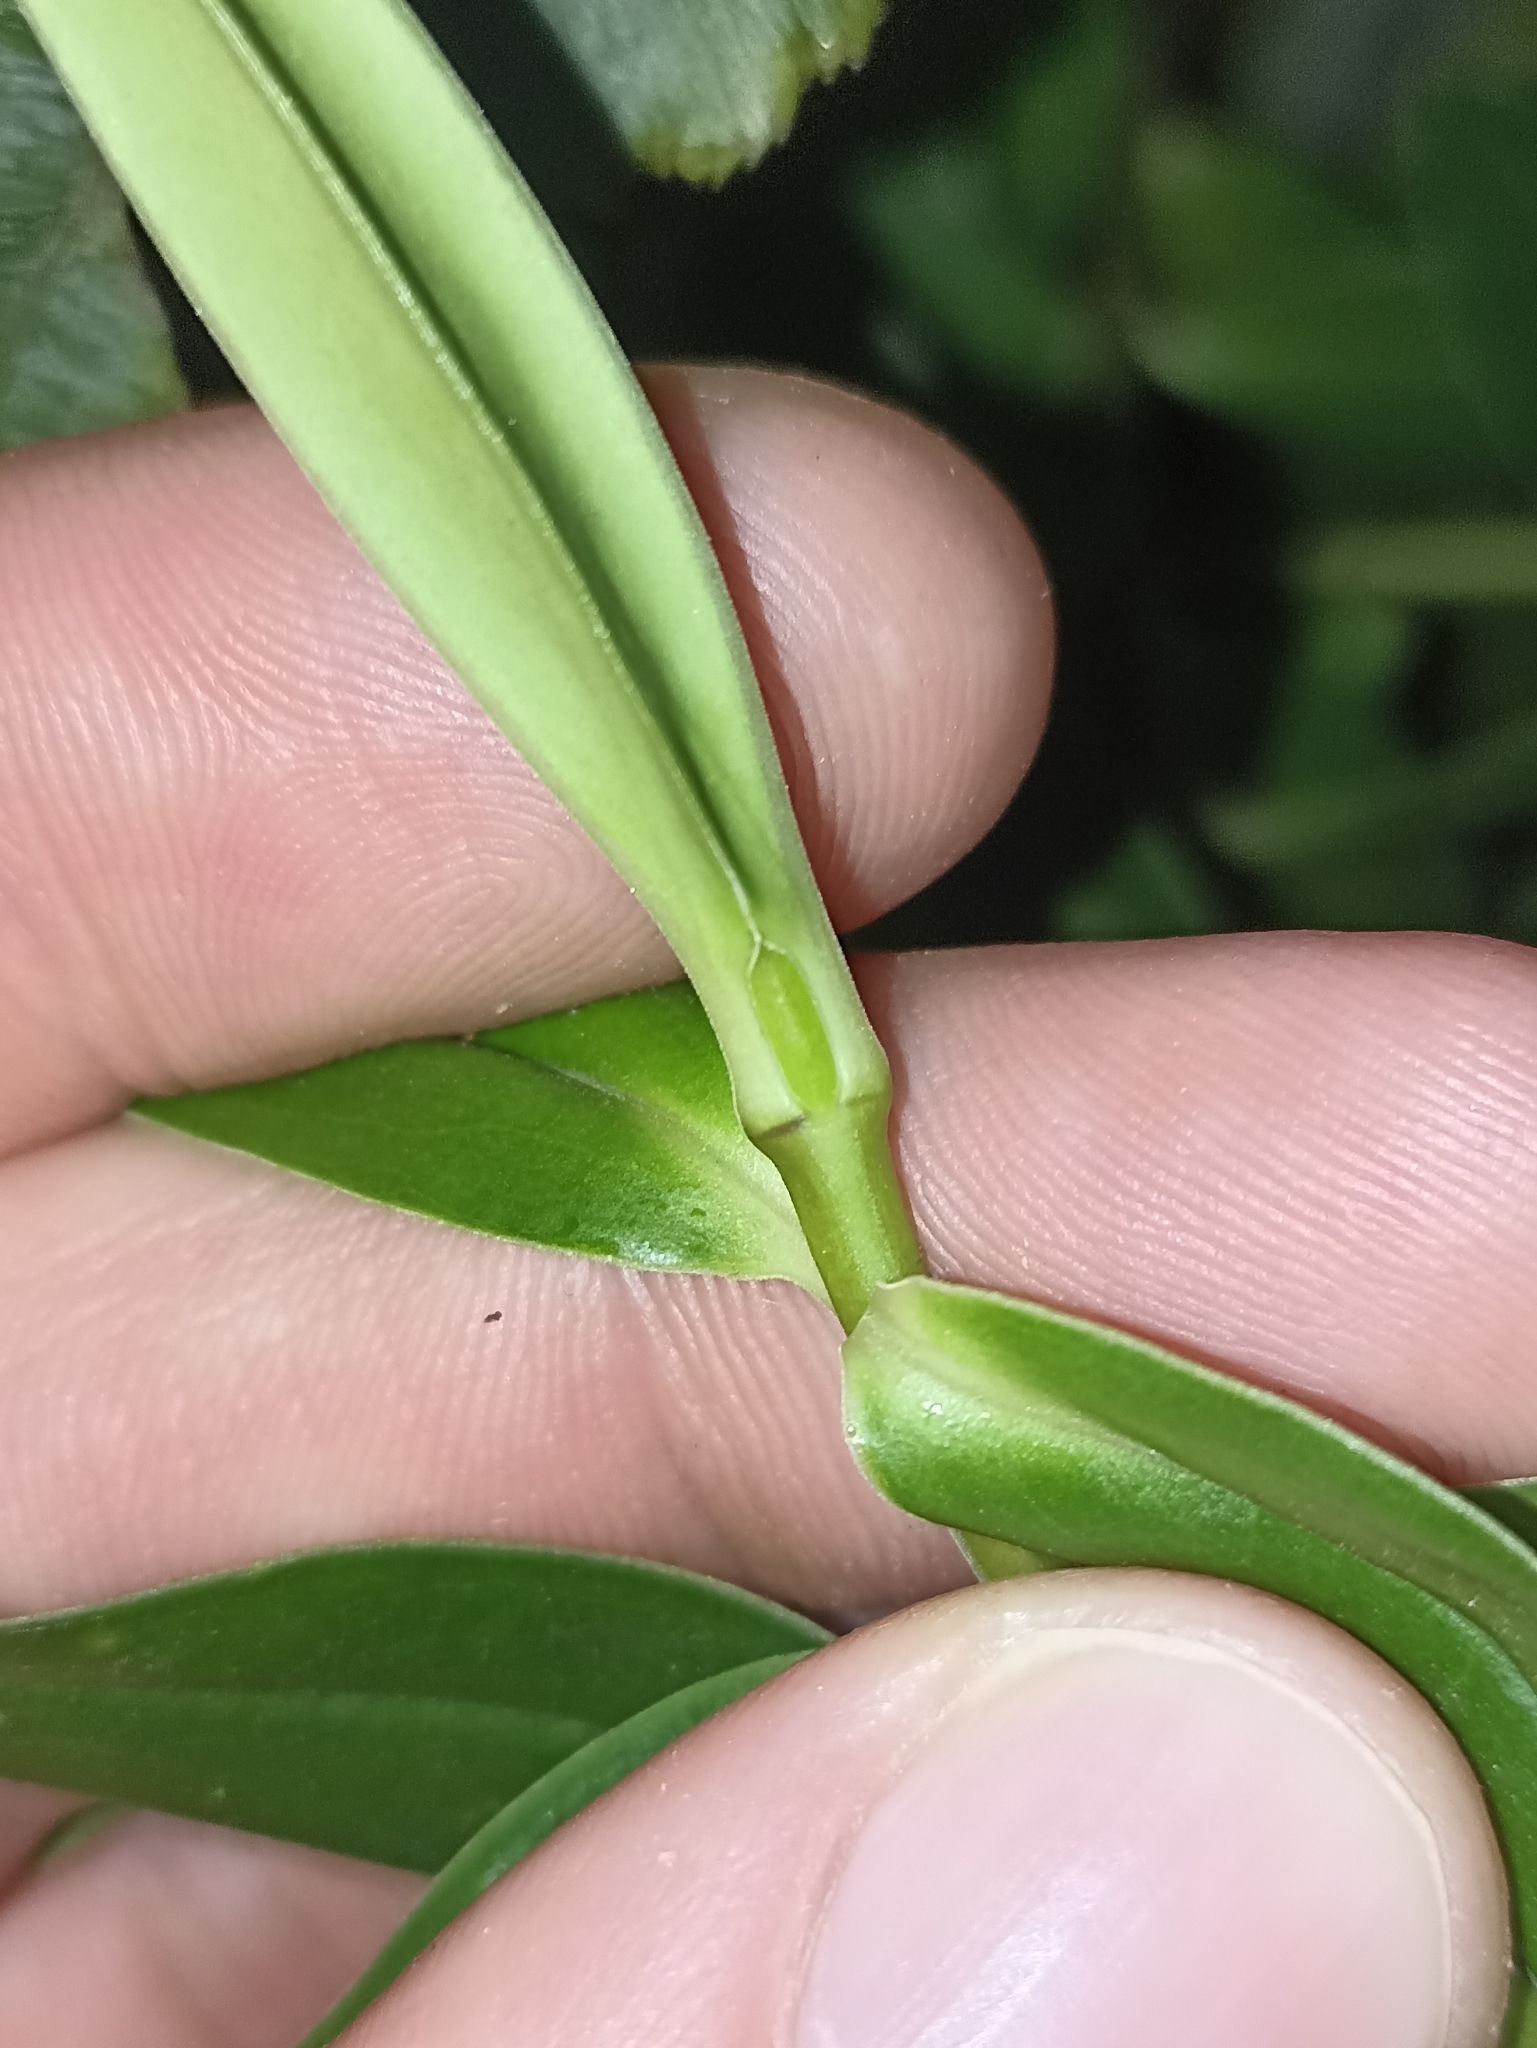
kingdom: Plantae
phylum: Tracheophyta
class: Magnoliopsida
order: Lamiales
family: Plantaginaceae
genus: Veronica
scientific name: Veronica salicifolia
